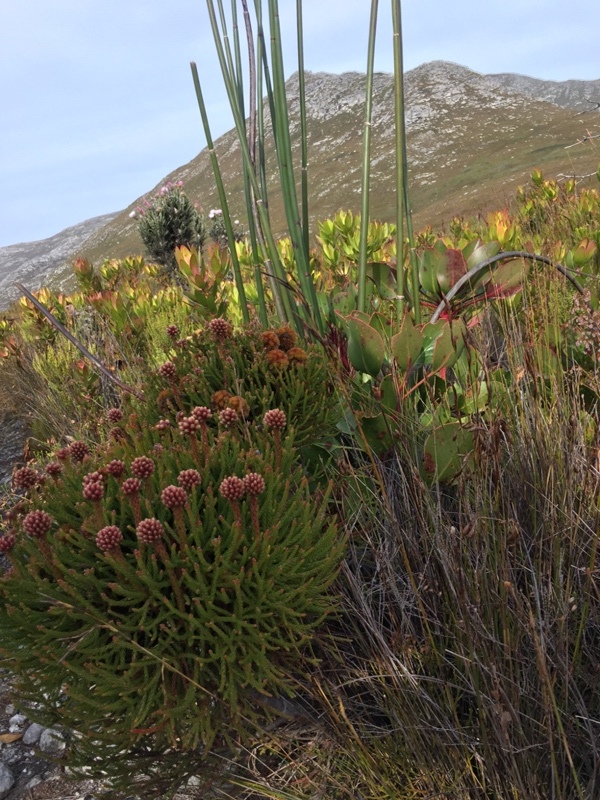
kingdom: Plantae
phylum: Tracheophyta
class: Magnoliopsida
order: Bruniales
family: Bruniaceae
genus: Brunia
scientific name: Brunia fragarioides
